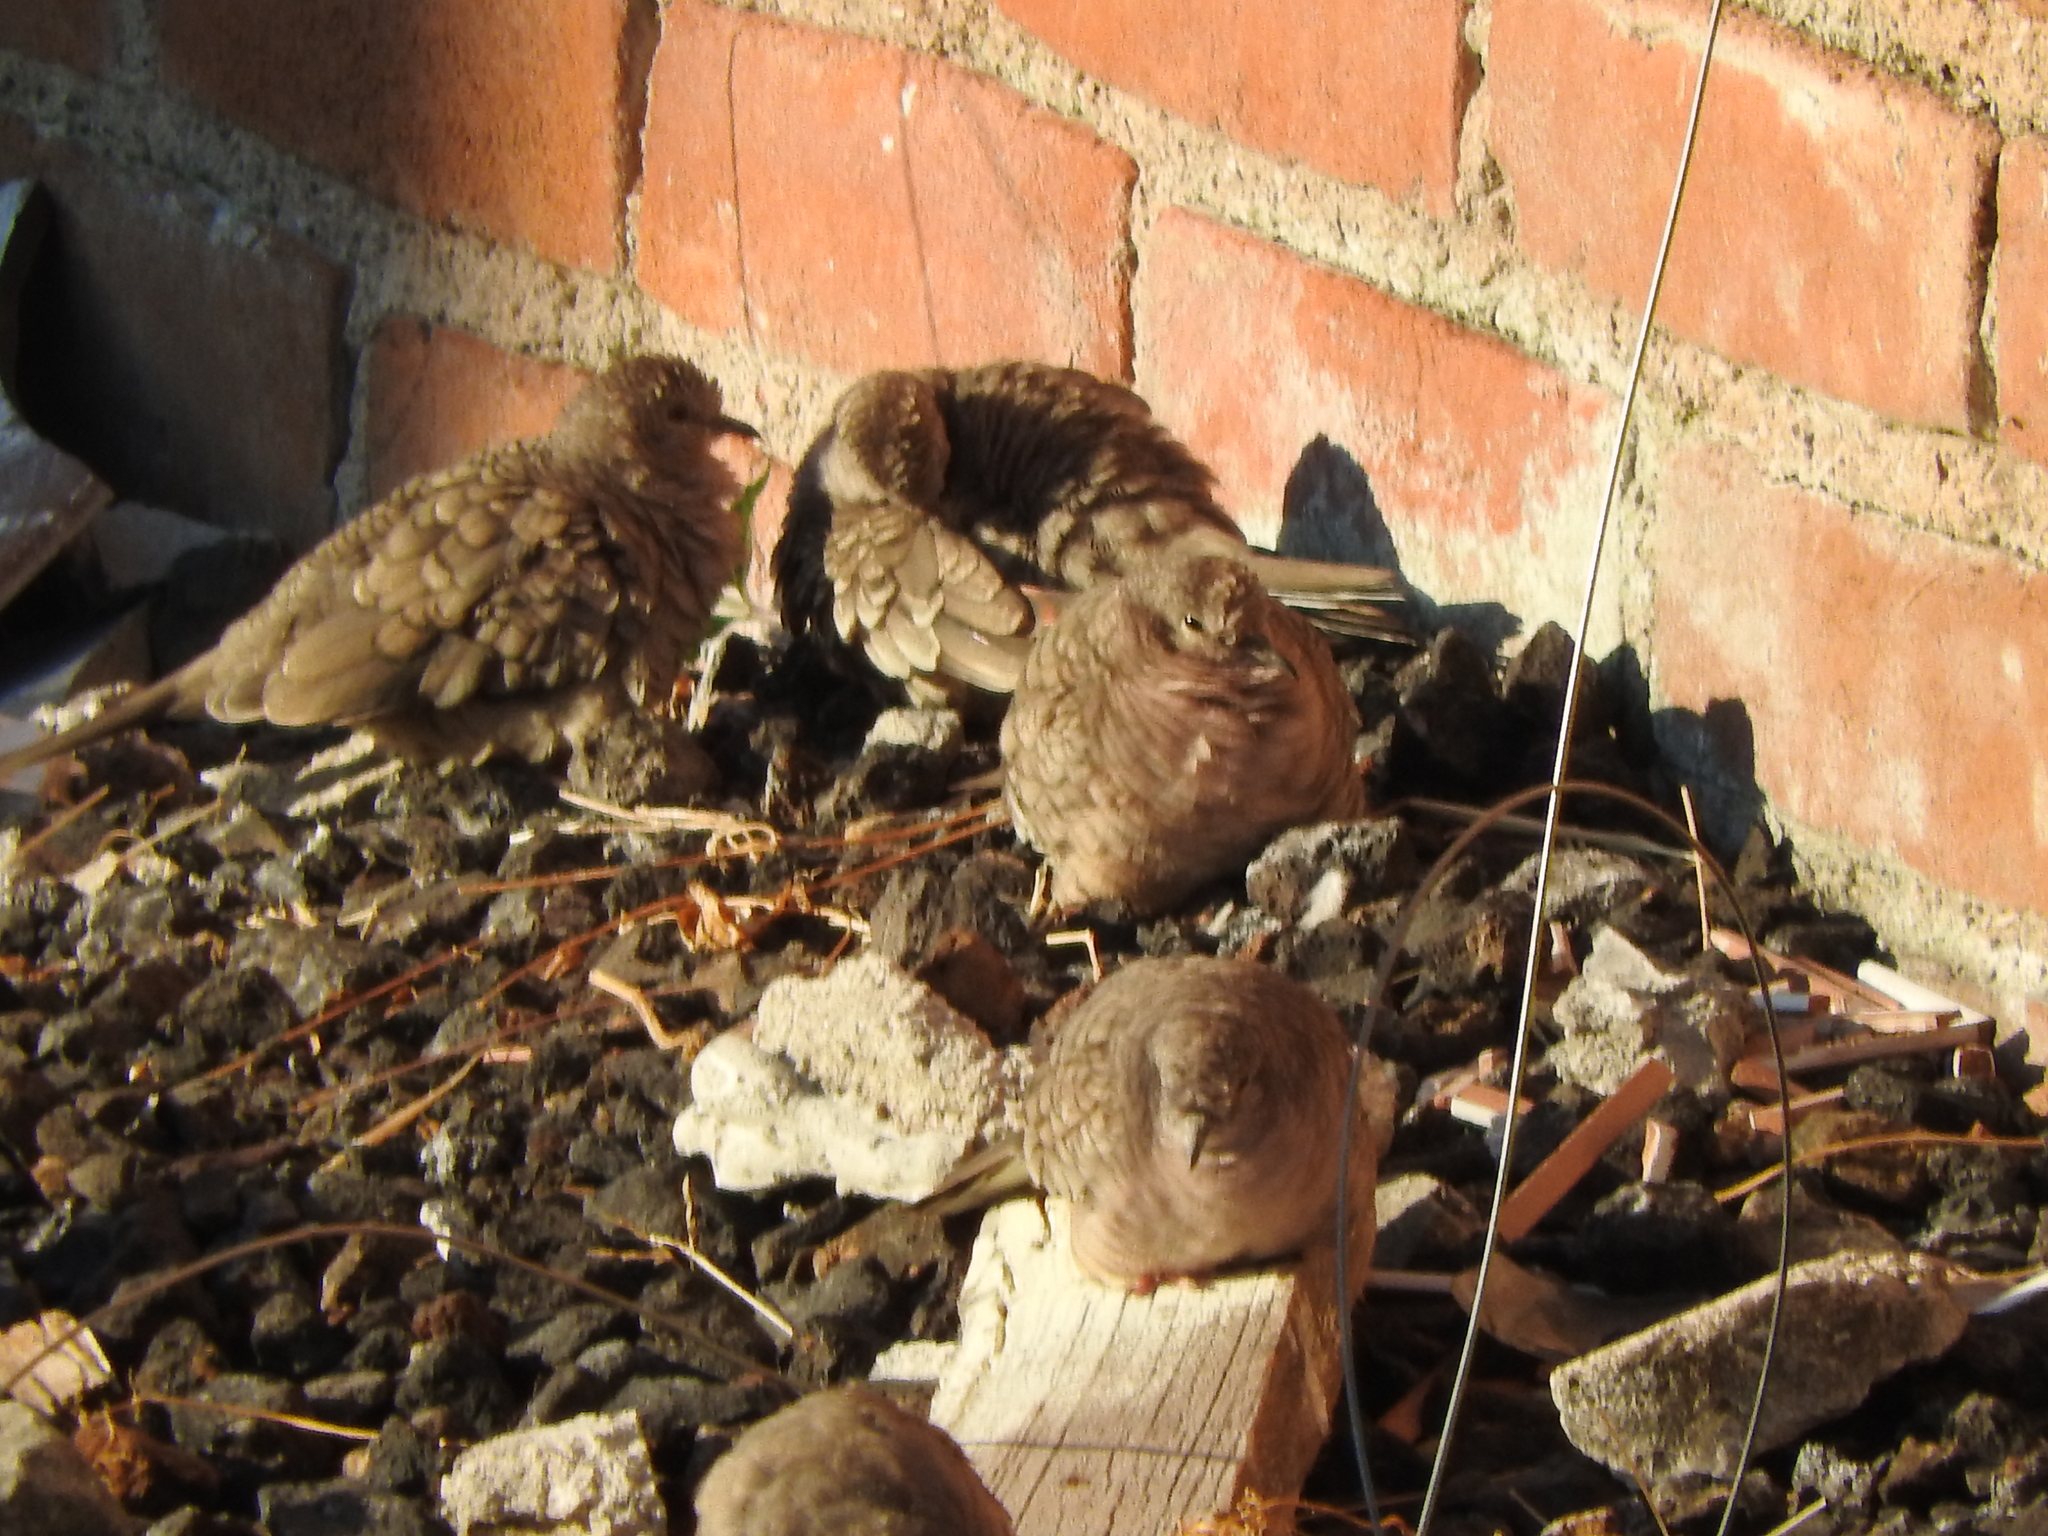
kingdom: Animalia
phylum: Chordata
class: Aves
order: Columbiformes
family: Columbidae
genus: Columbina
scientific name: Columbina inca
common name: Inca dove
